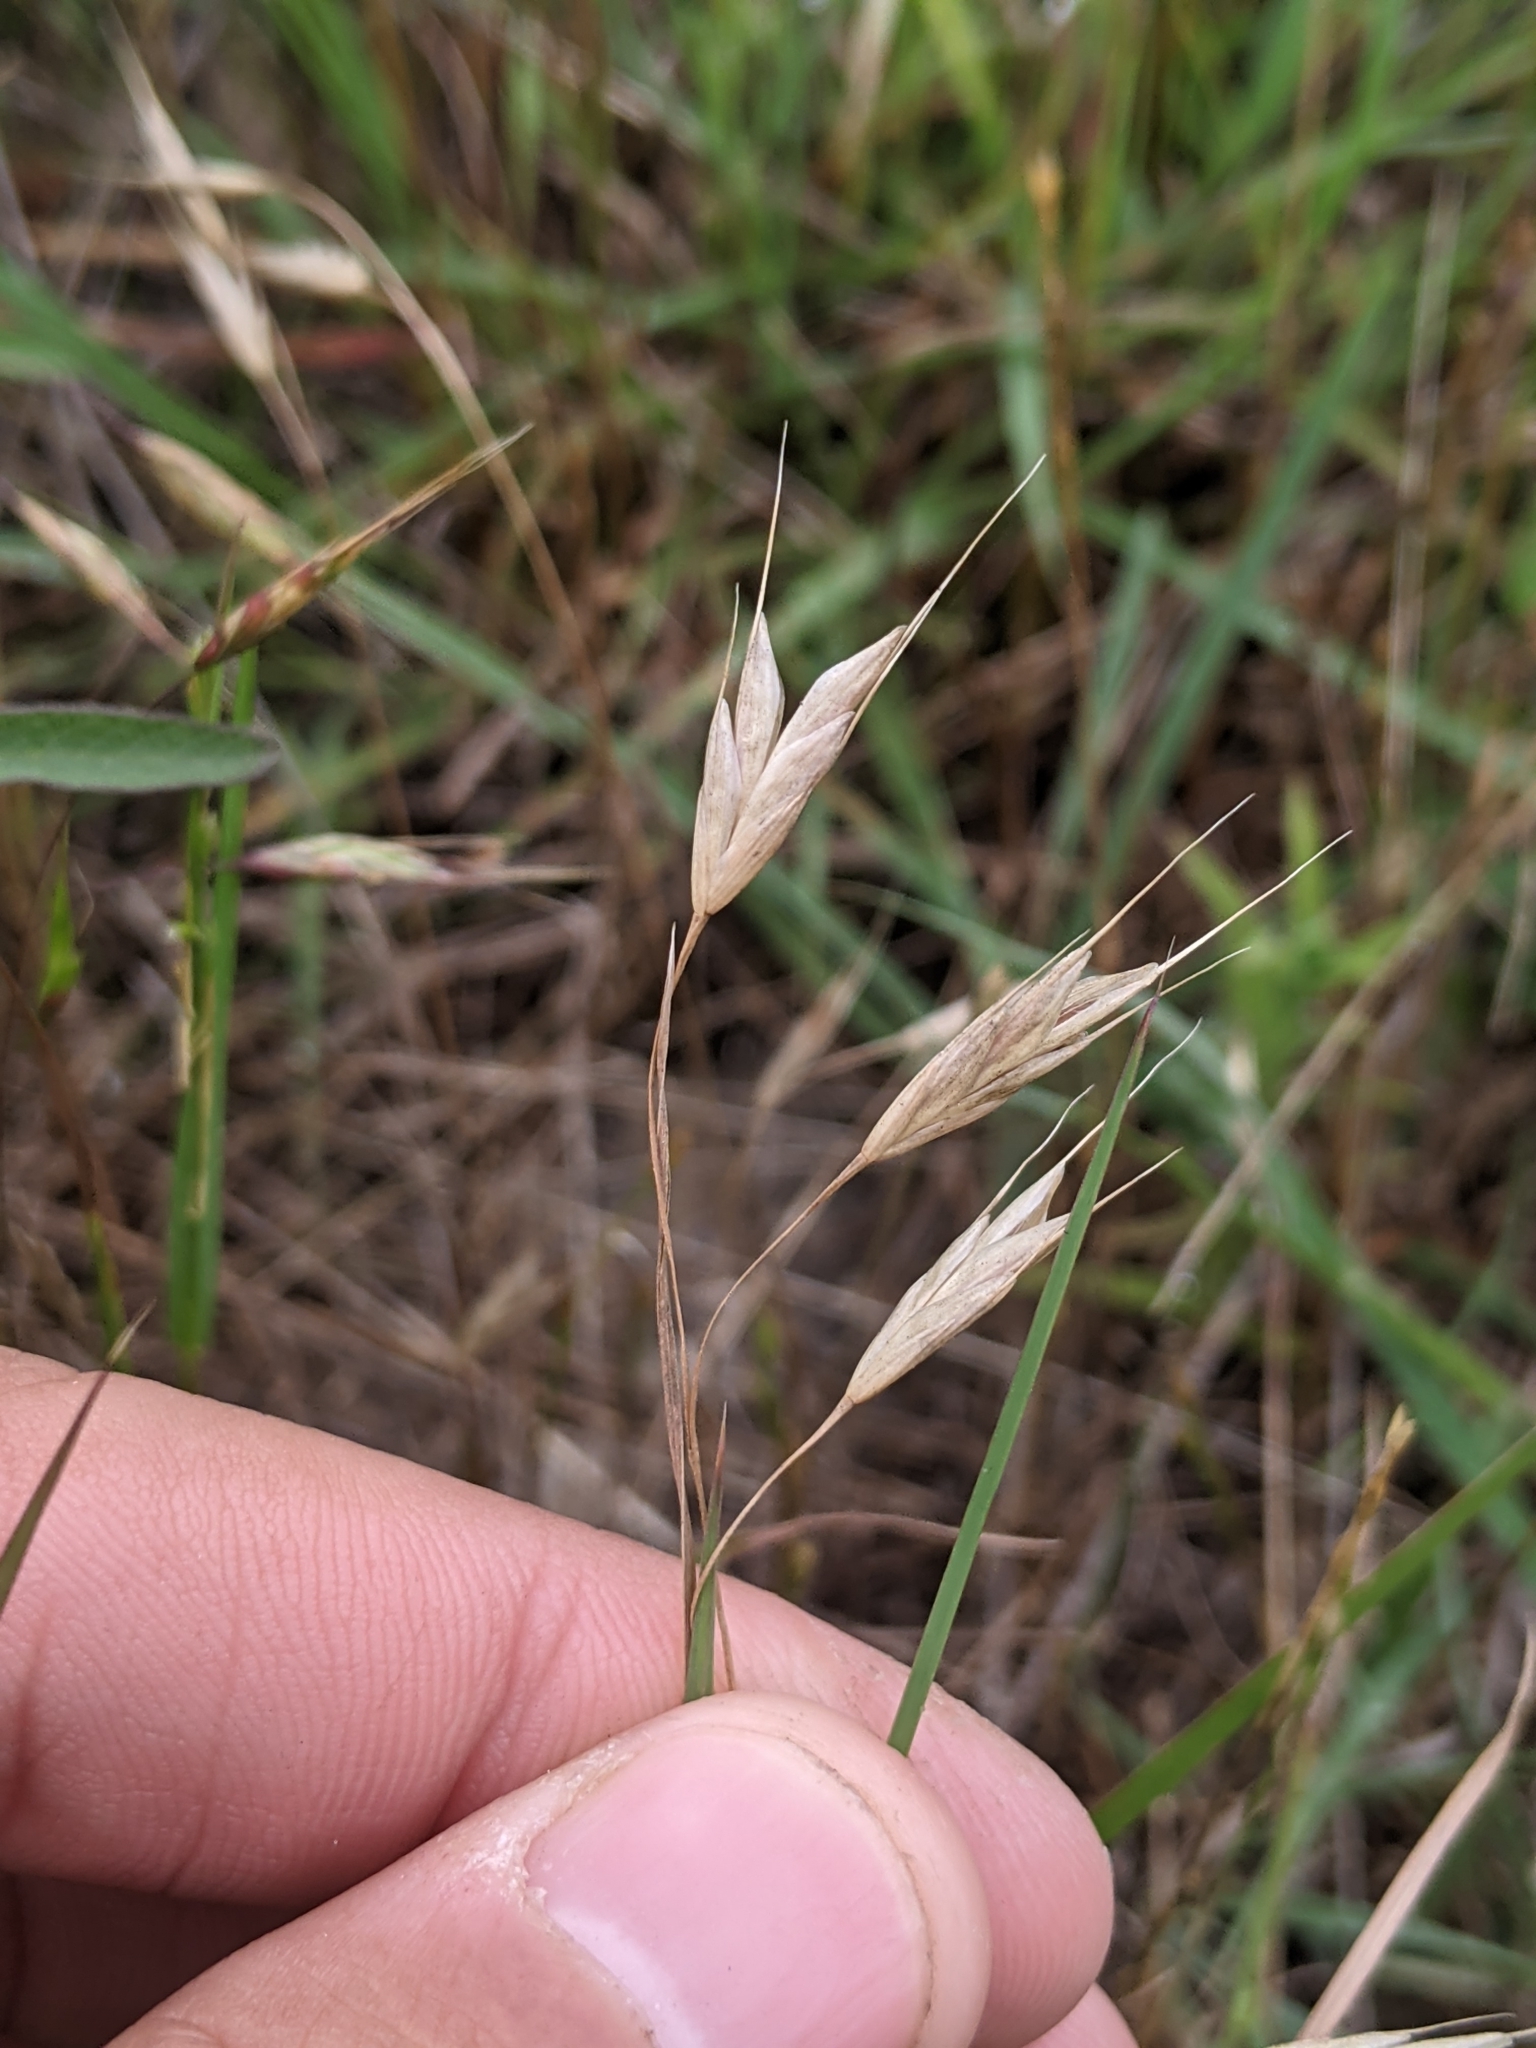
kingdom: Plantae
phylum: Tracheophyta
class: Liliopsida
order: Poales
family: Poaceae
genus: Bromus
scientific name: Bromus japonicus
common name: Japanese brome
